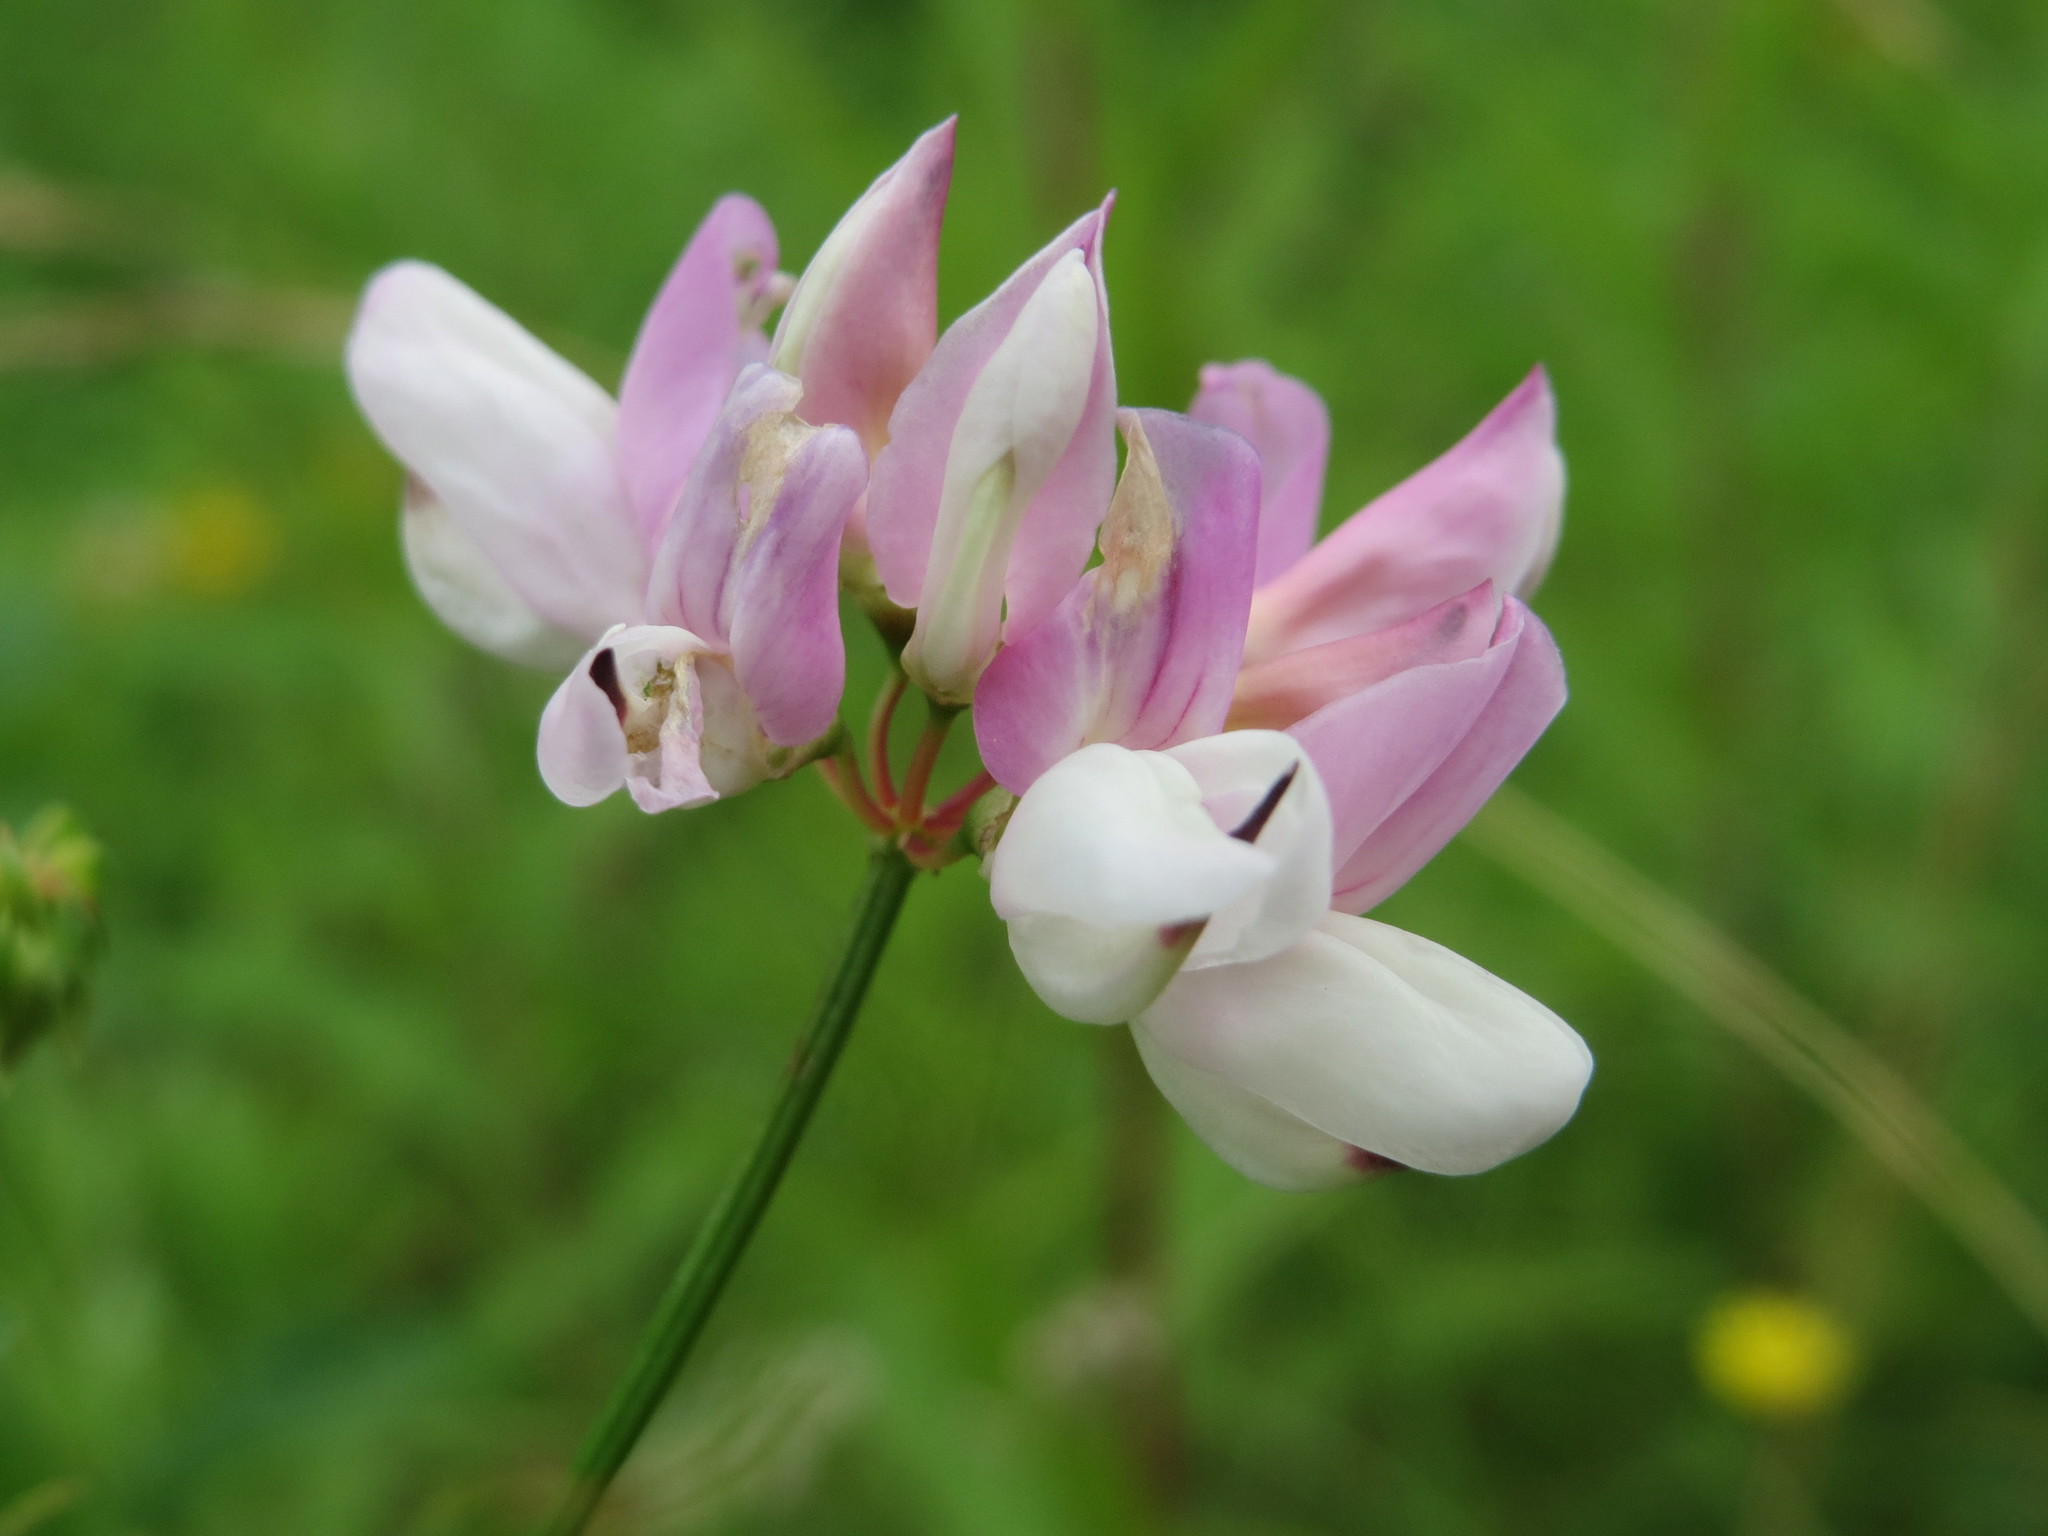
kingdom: Plantae
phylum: Tracheophyta
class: Magnoliopsida
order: Fabales
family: Fabaceae
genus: Coronilla
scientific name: Coronilla varia
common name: Crownvetch
